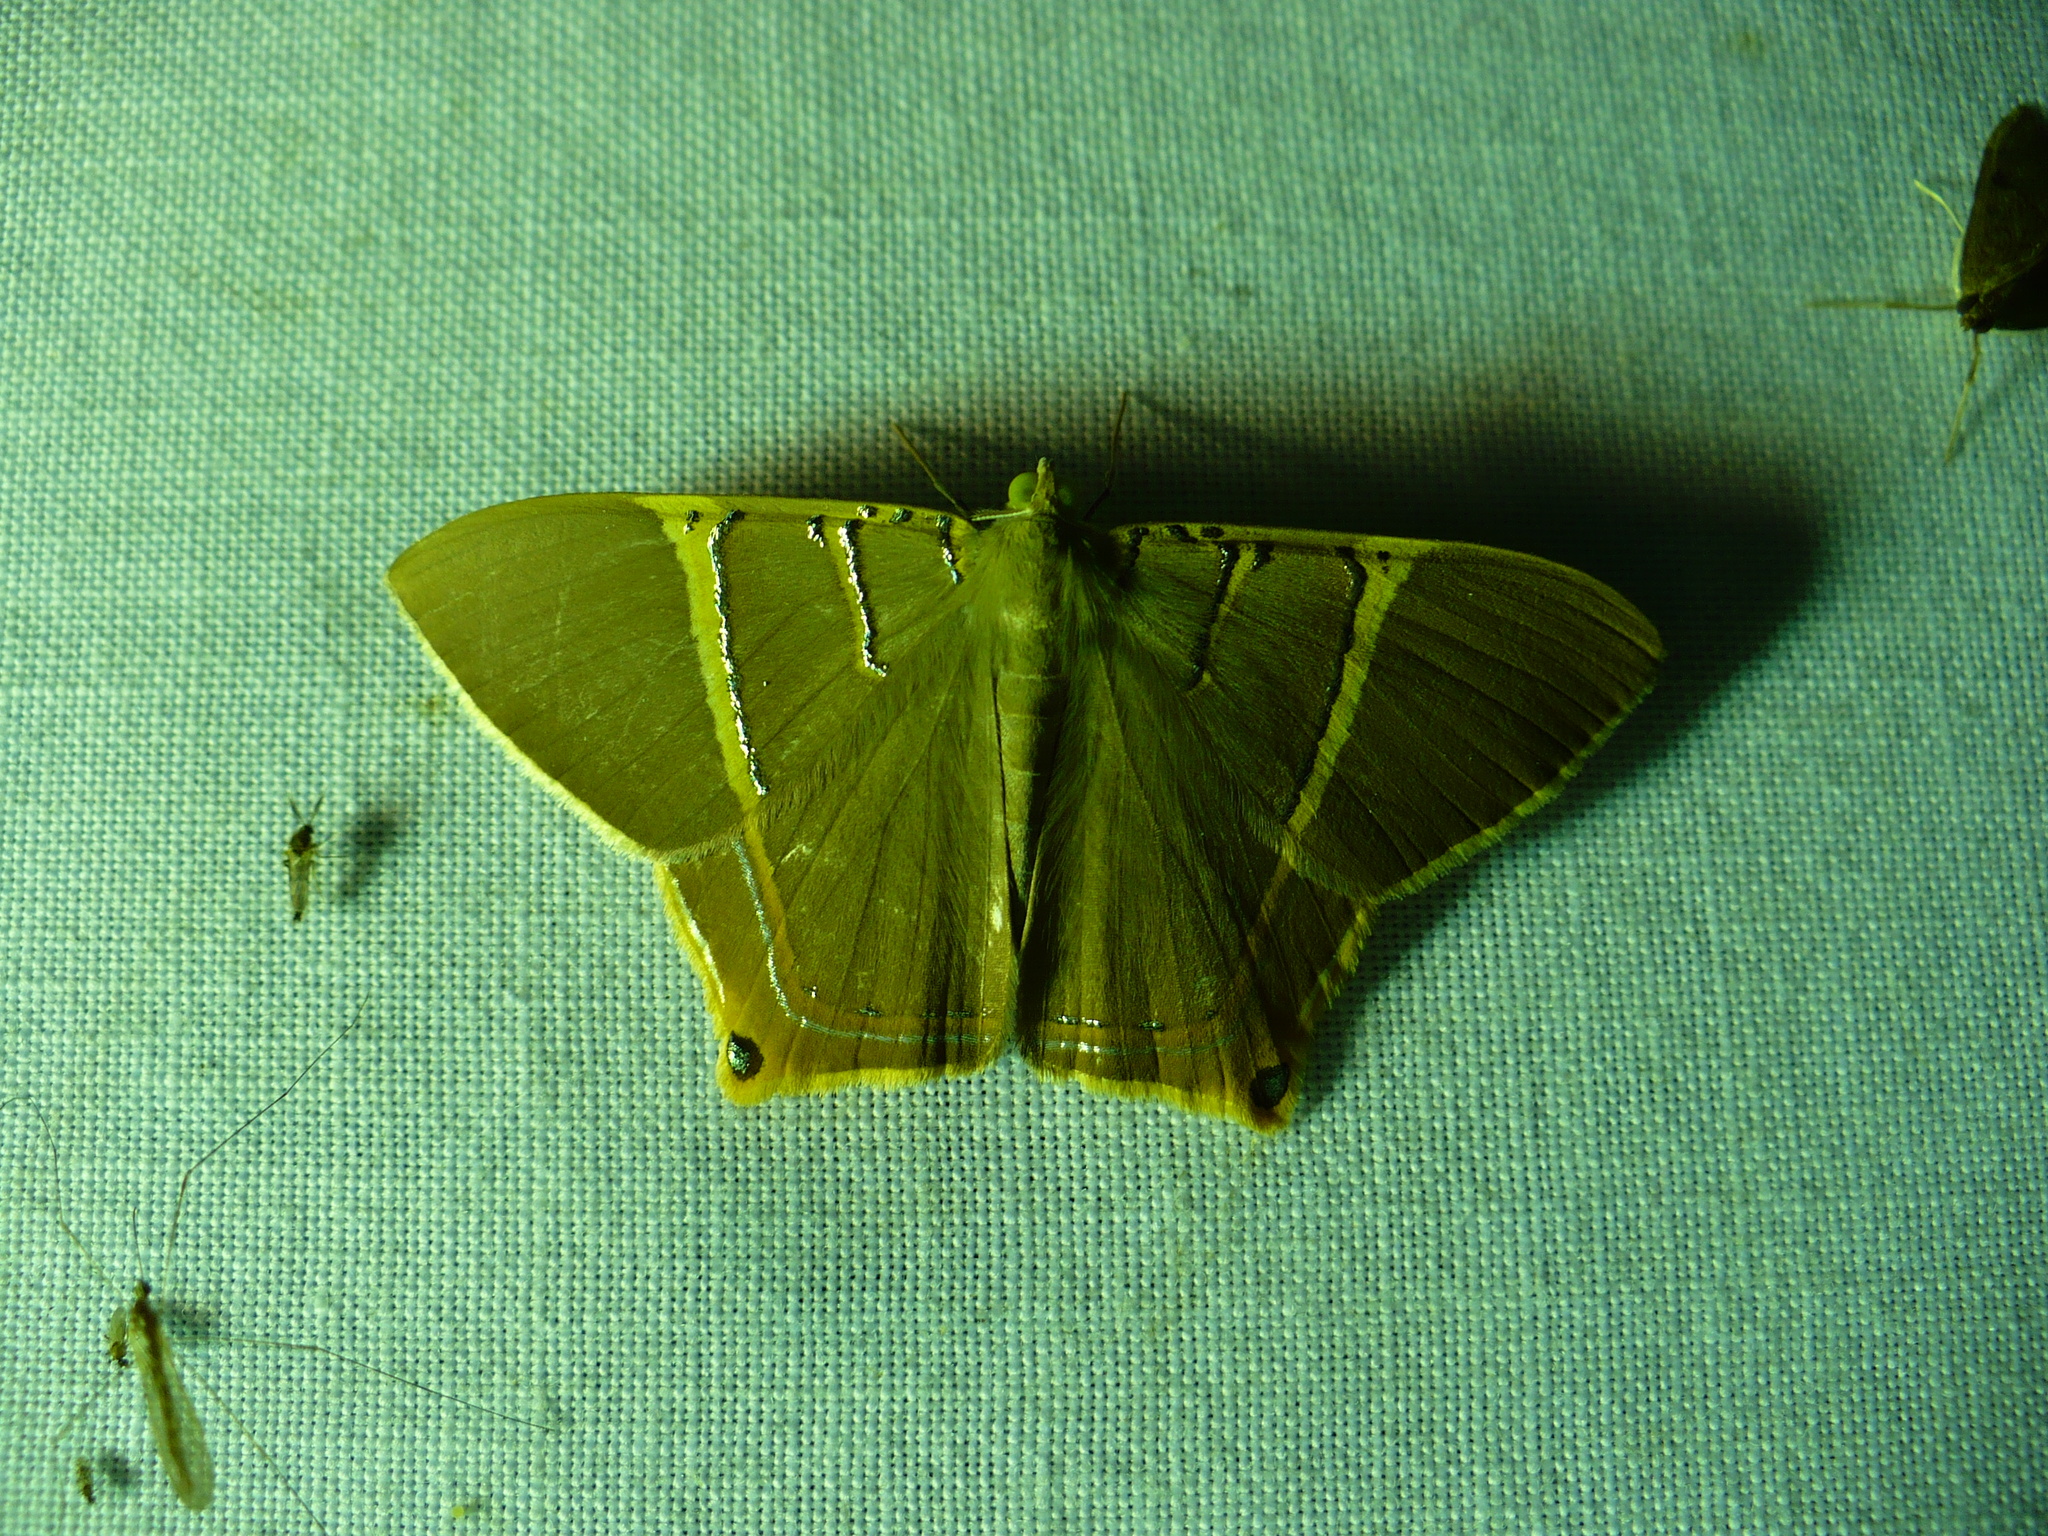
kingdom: Animalia
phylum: Arthropoda
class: Insecta
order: Lepidoptera
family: Geometridae
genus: Phrygionis
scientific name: Phrygionis polita
